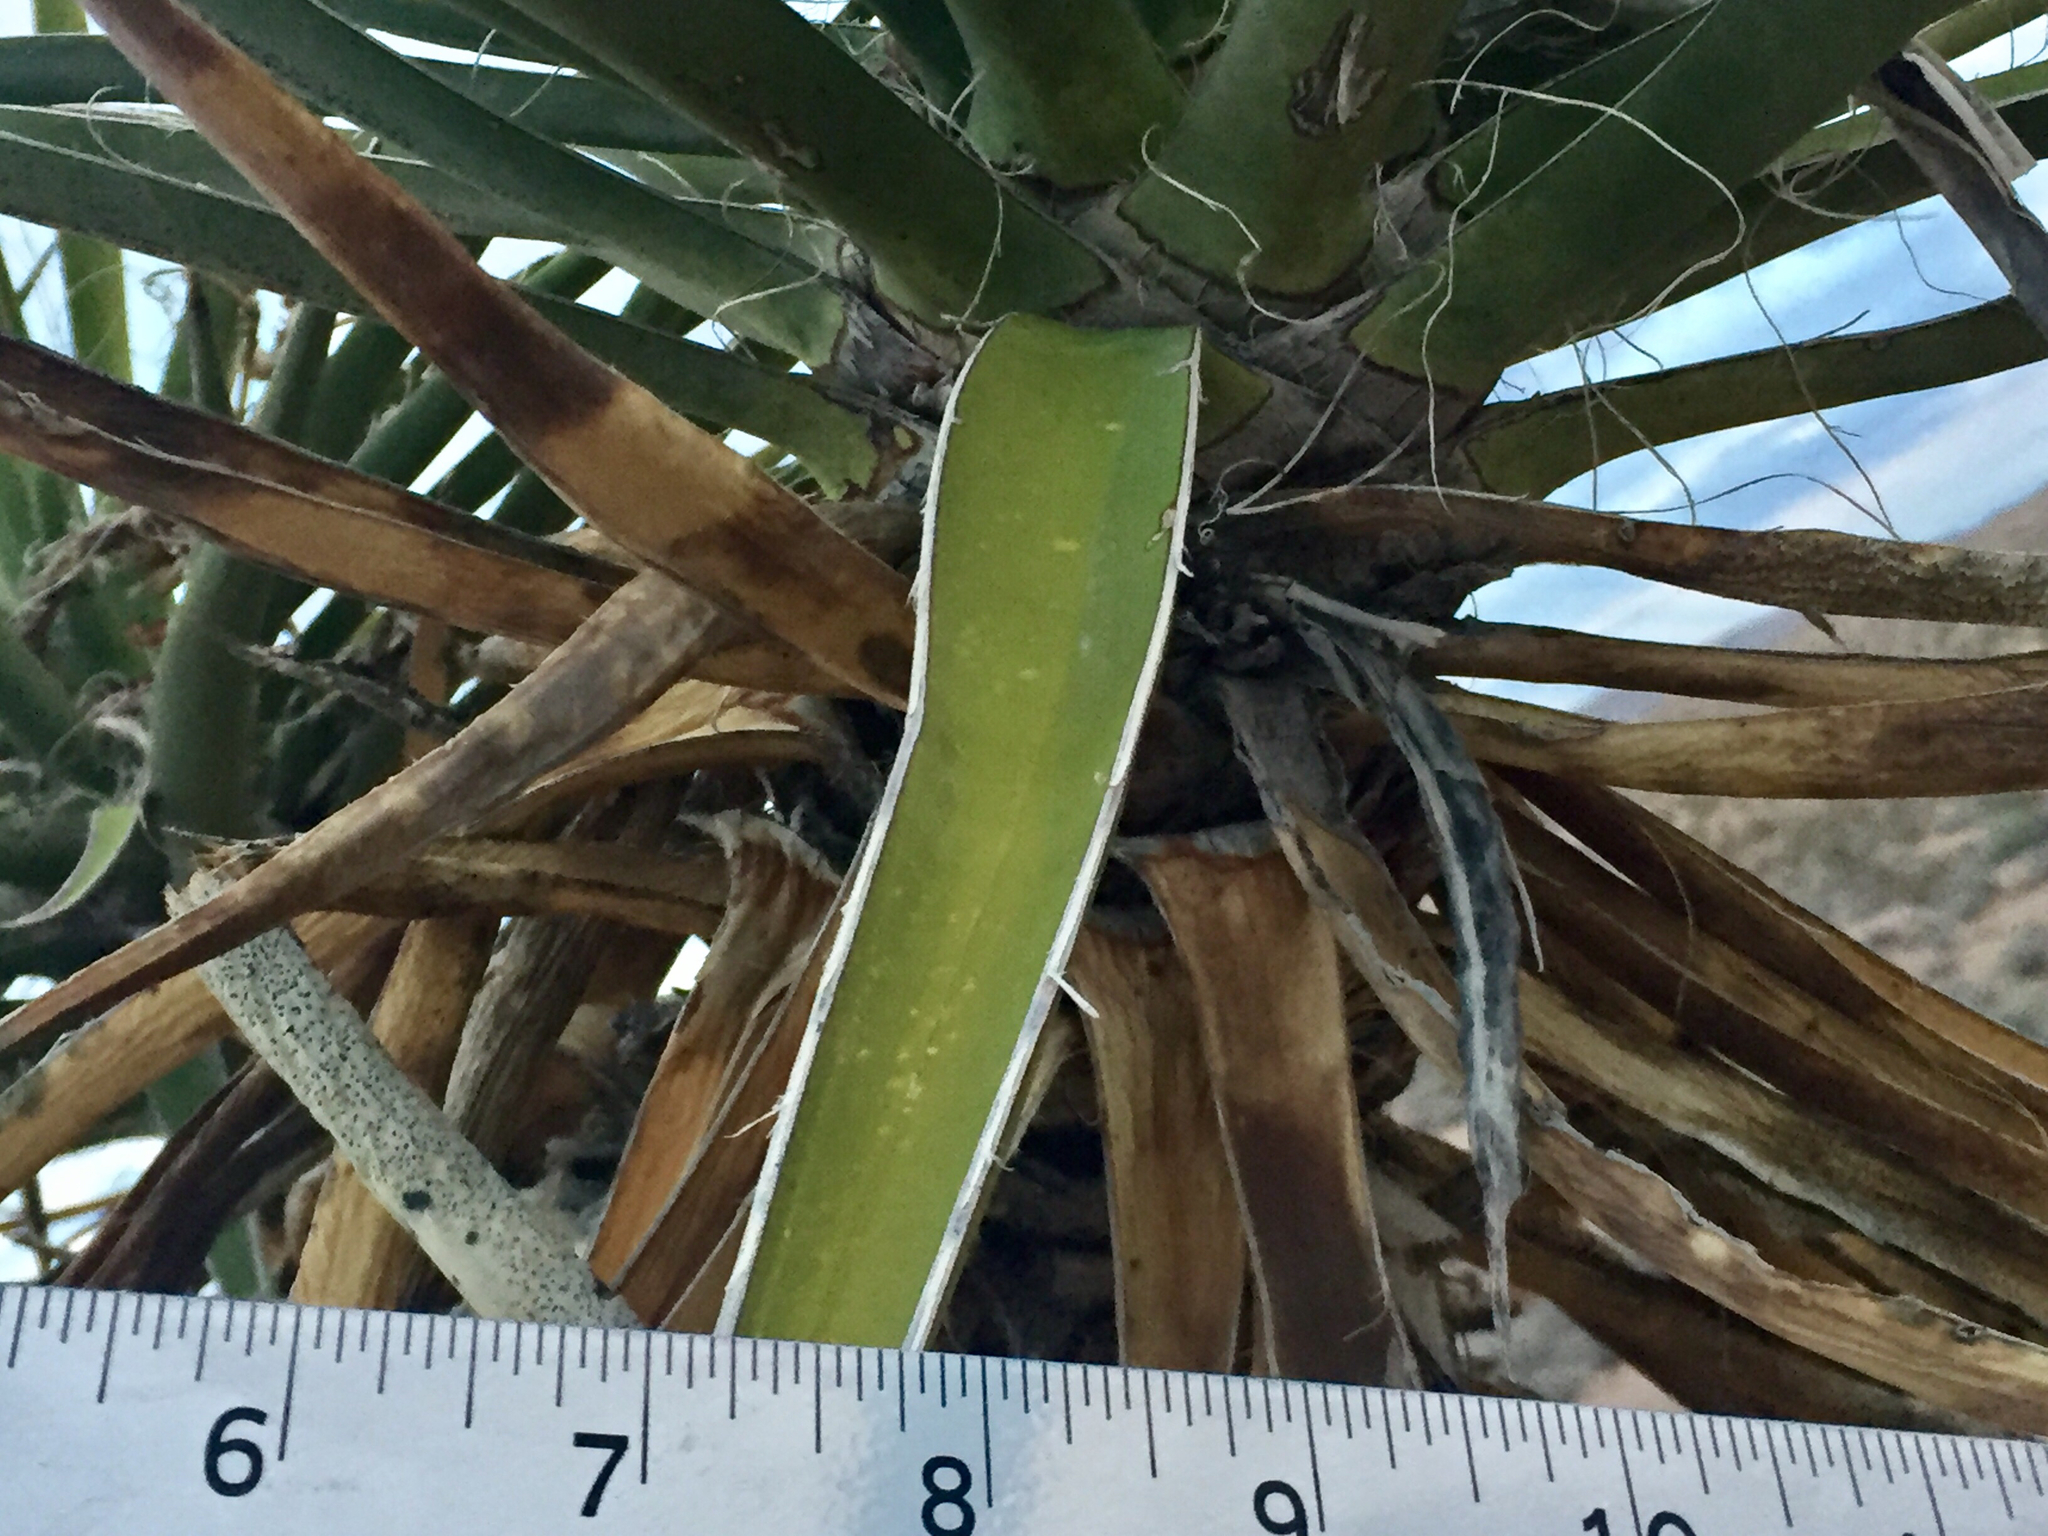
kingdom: Plantae
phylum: Tracheophyta
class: Liliopsida
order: Asparagales
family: Asparagaceae
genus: Yucca
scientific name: Yucca schidigera
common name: Mojave yucca
